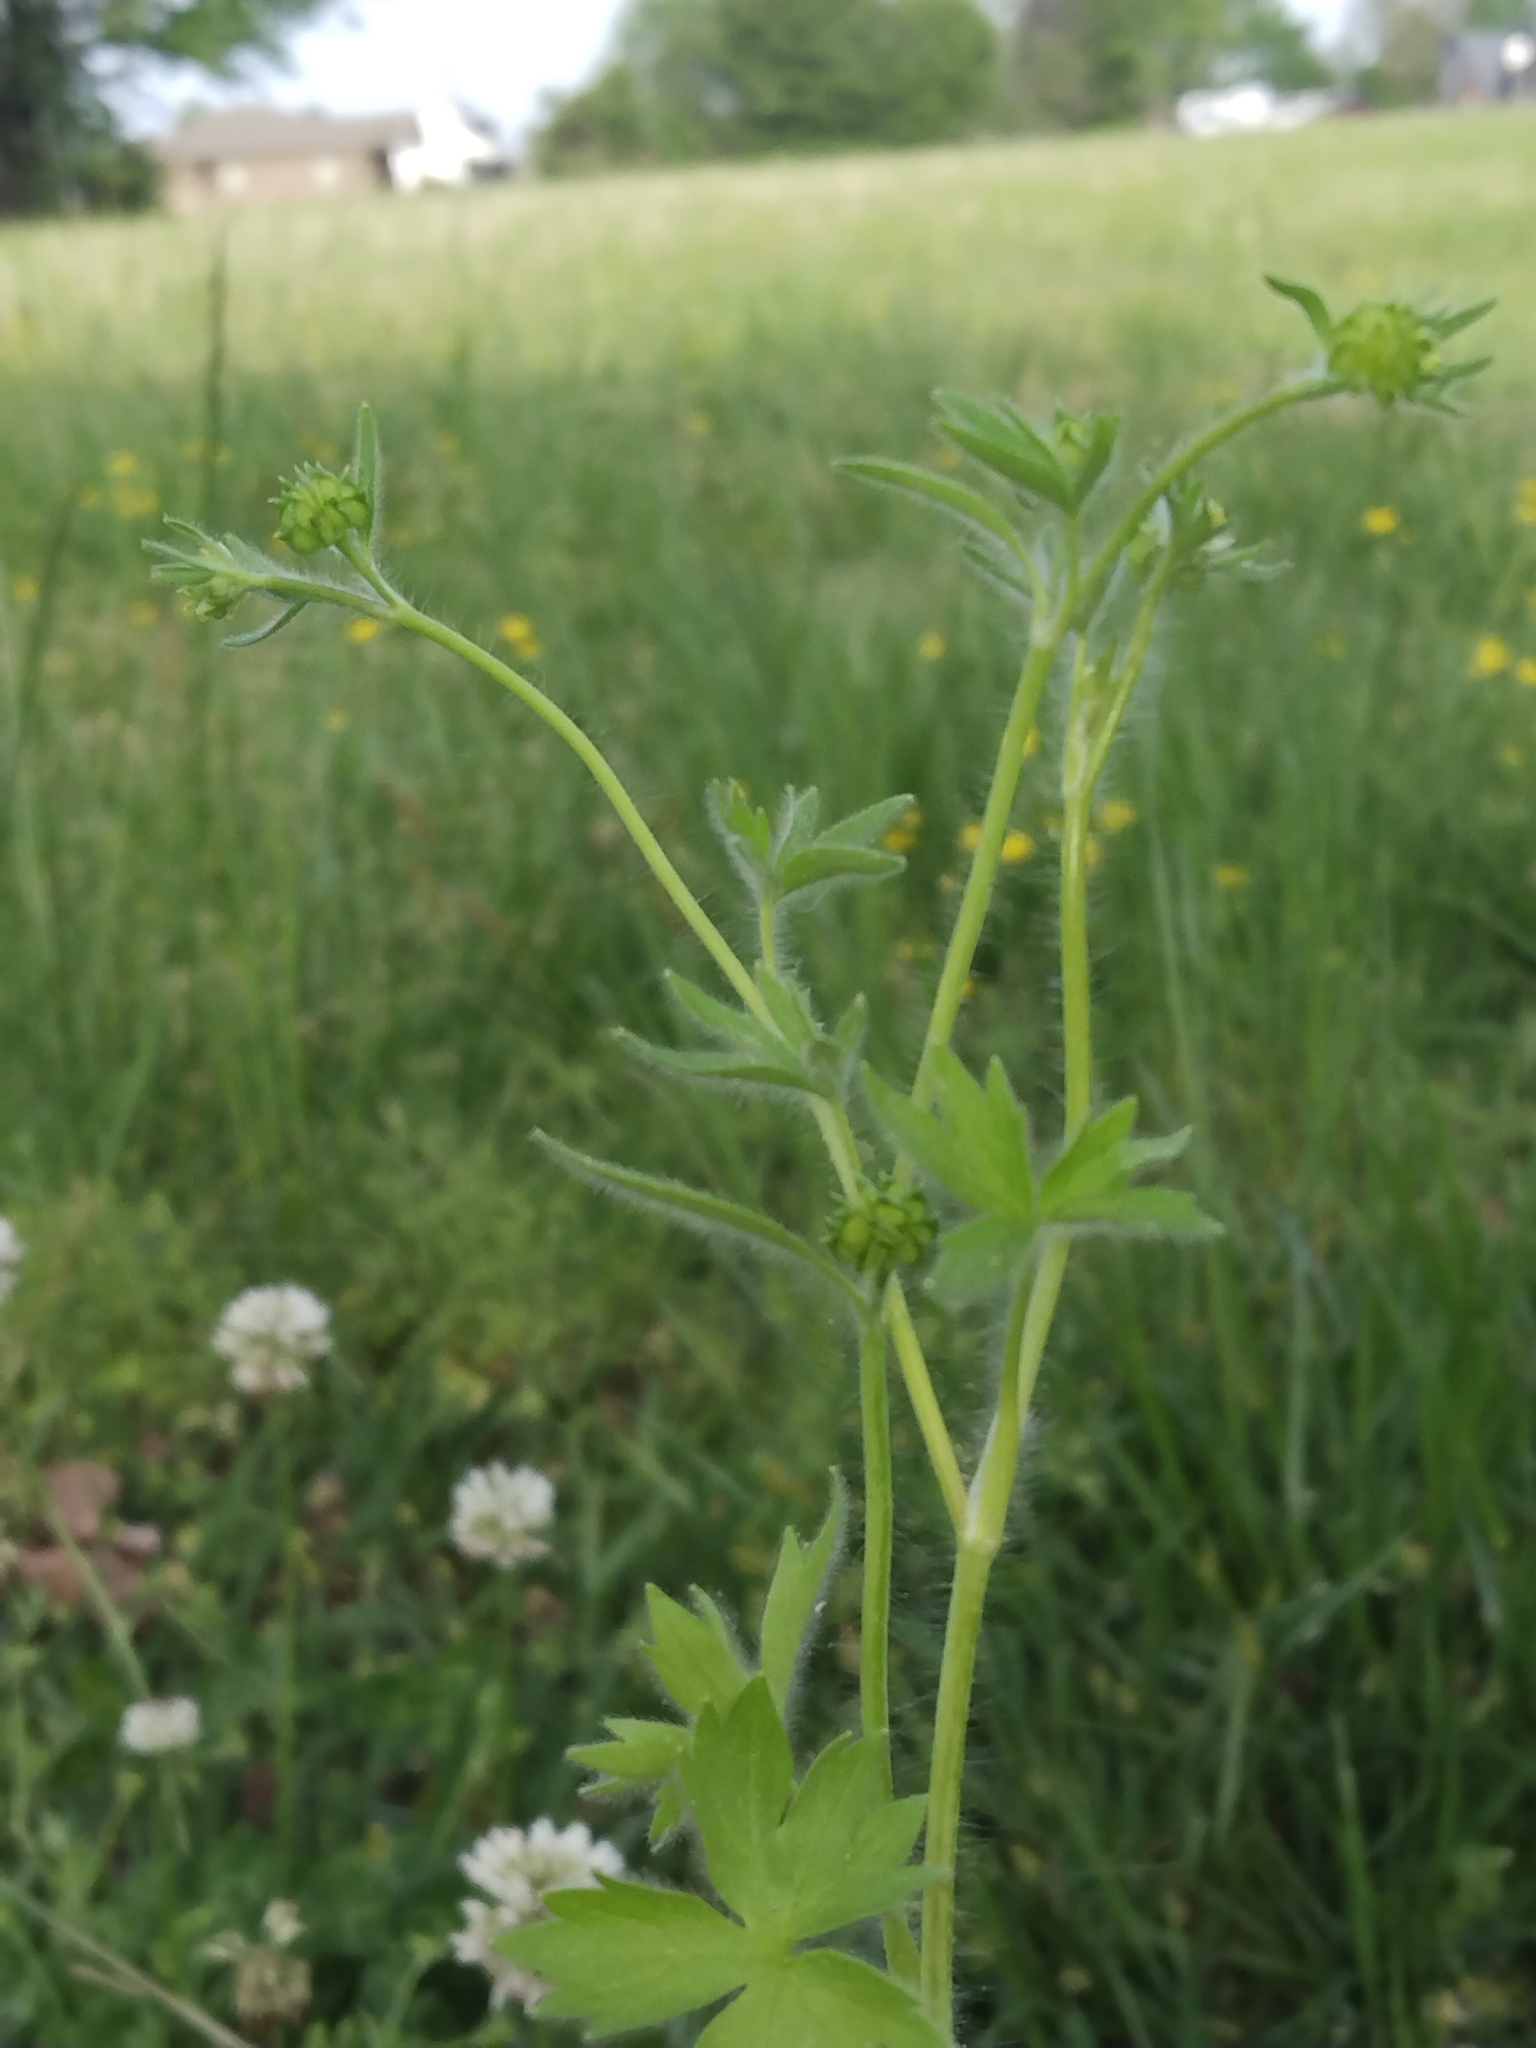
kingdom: Plantae
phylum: Tracheophyta
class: Magnoliopsida
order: Ranunculales
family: Ranunculaceae
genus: Ranunculus
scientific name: Ranunculus parviflorus
